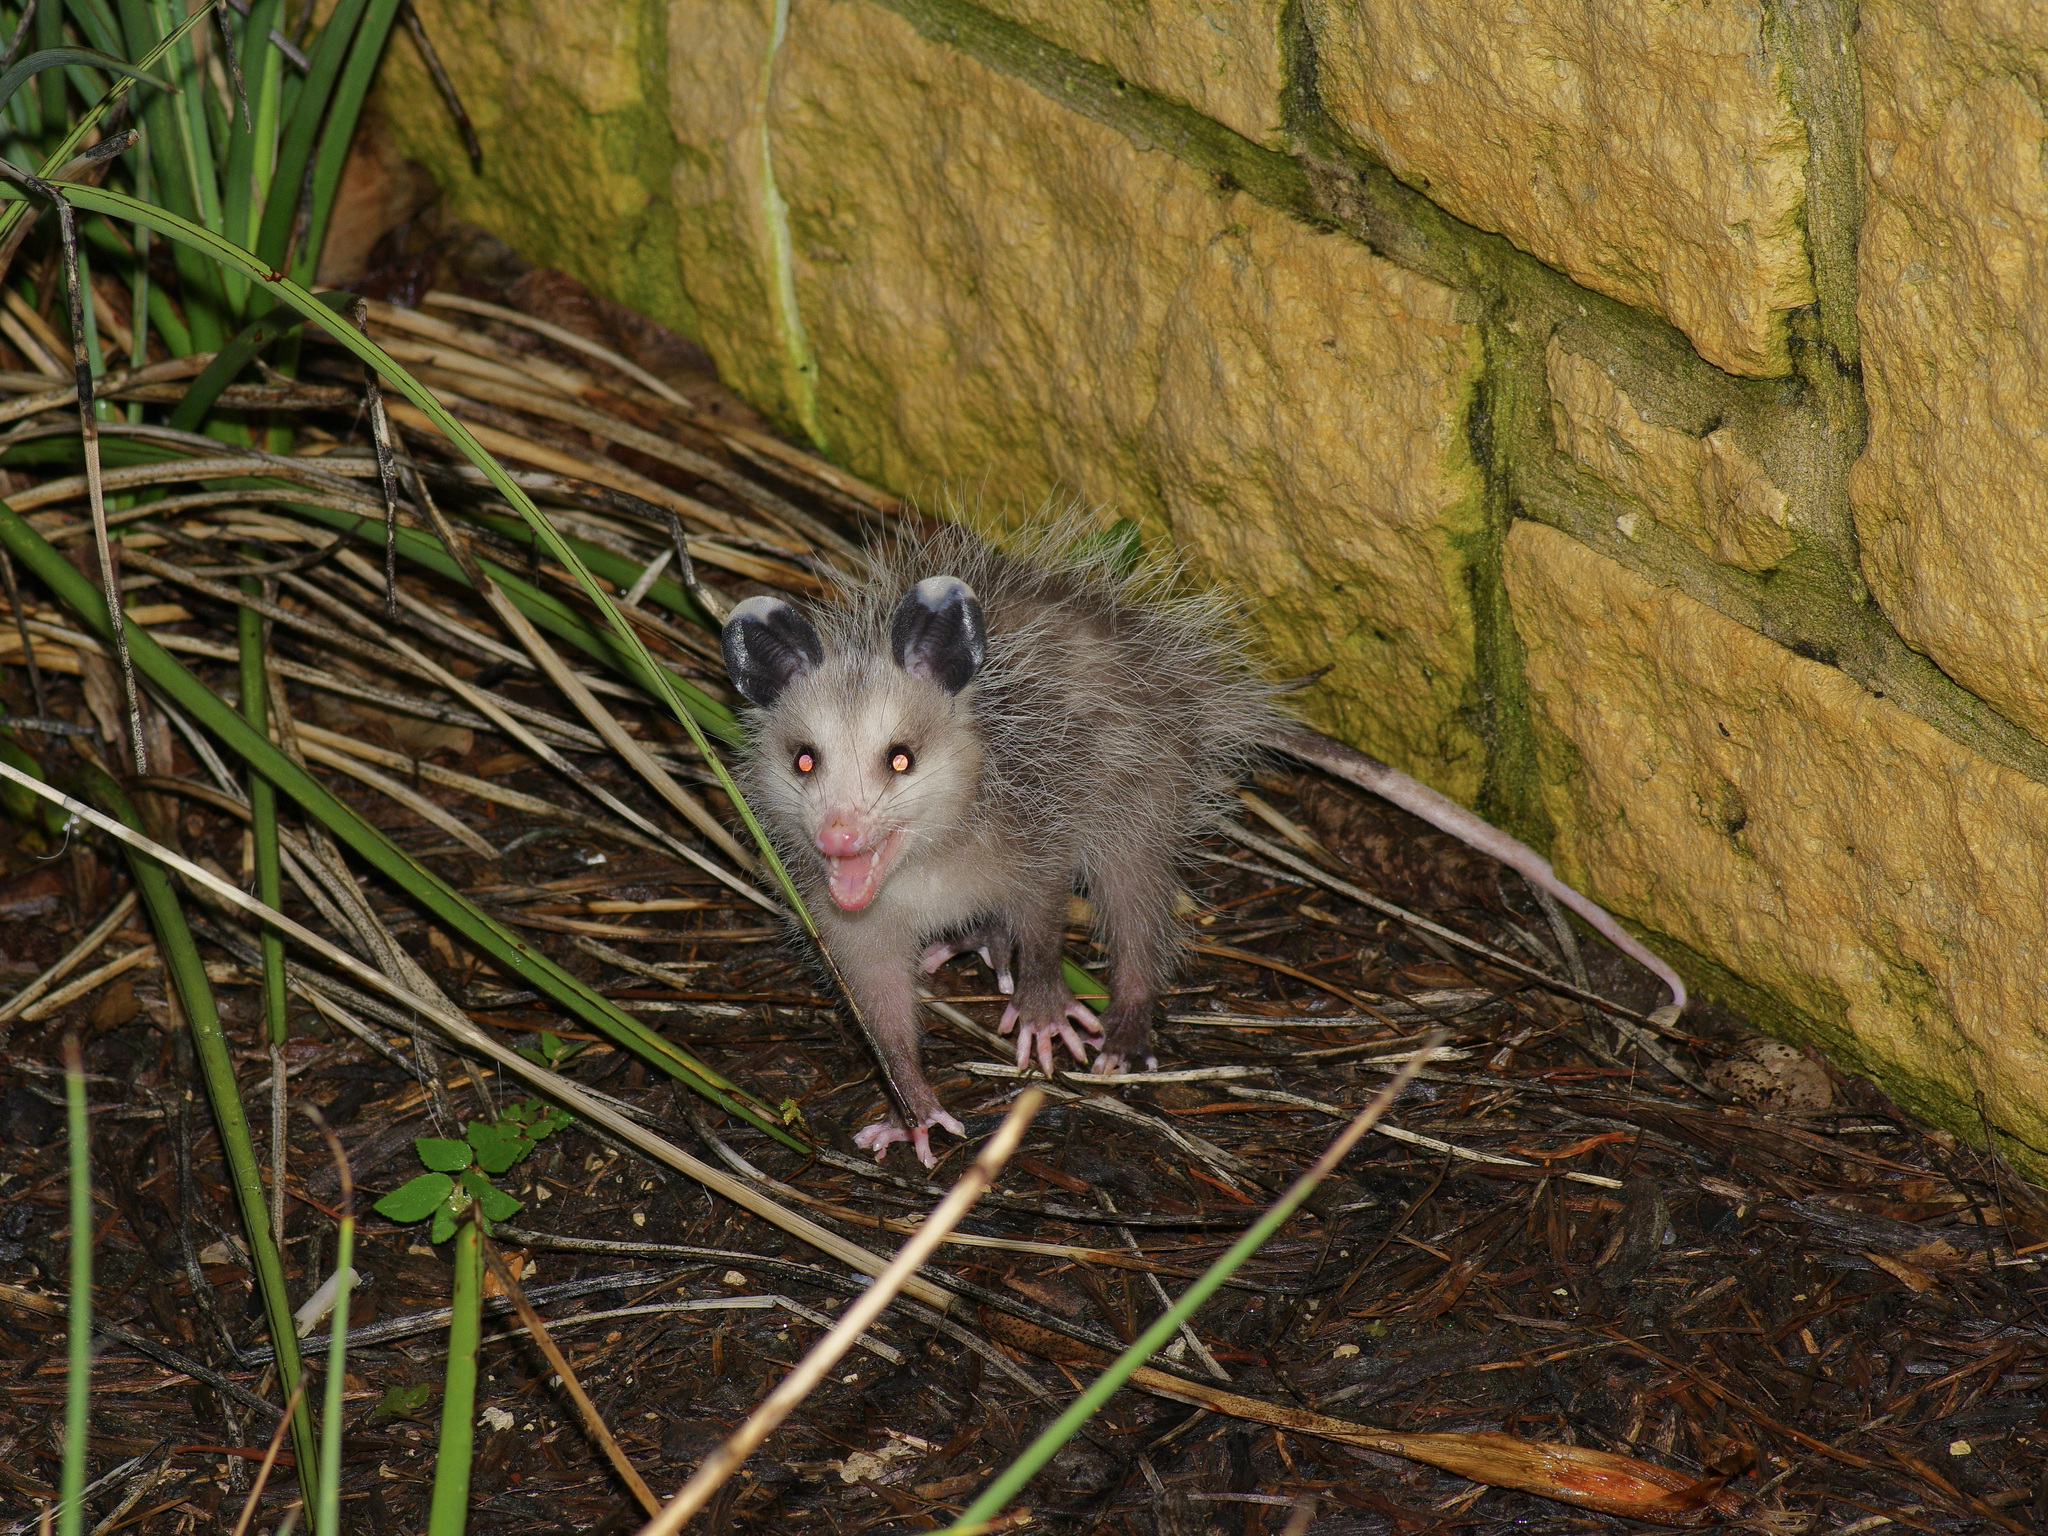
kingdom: Animalia
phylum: Chordata
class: Mammalia
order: Didelphimorphia
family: Didelphidae
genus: Didelphis
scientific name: Didelphis virginiana
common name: Virginia opossum
